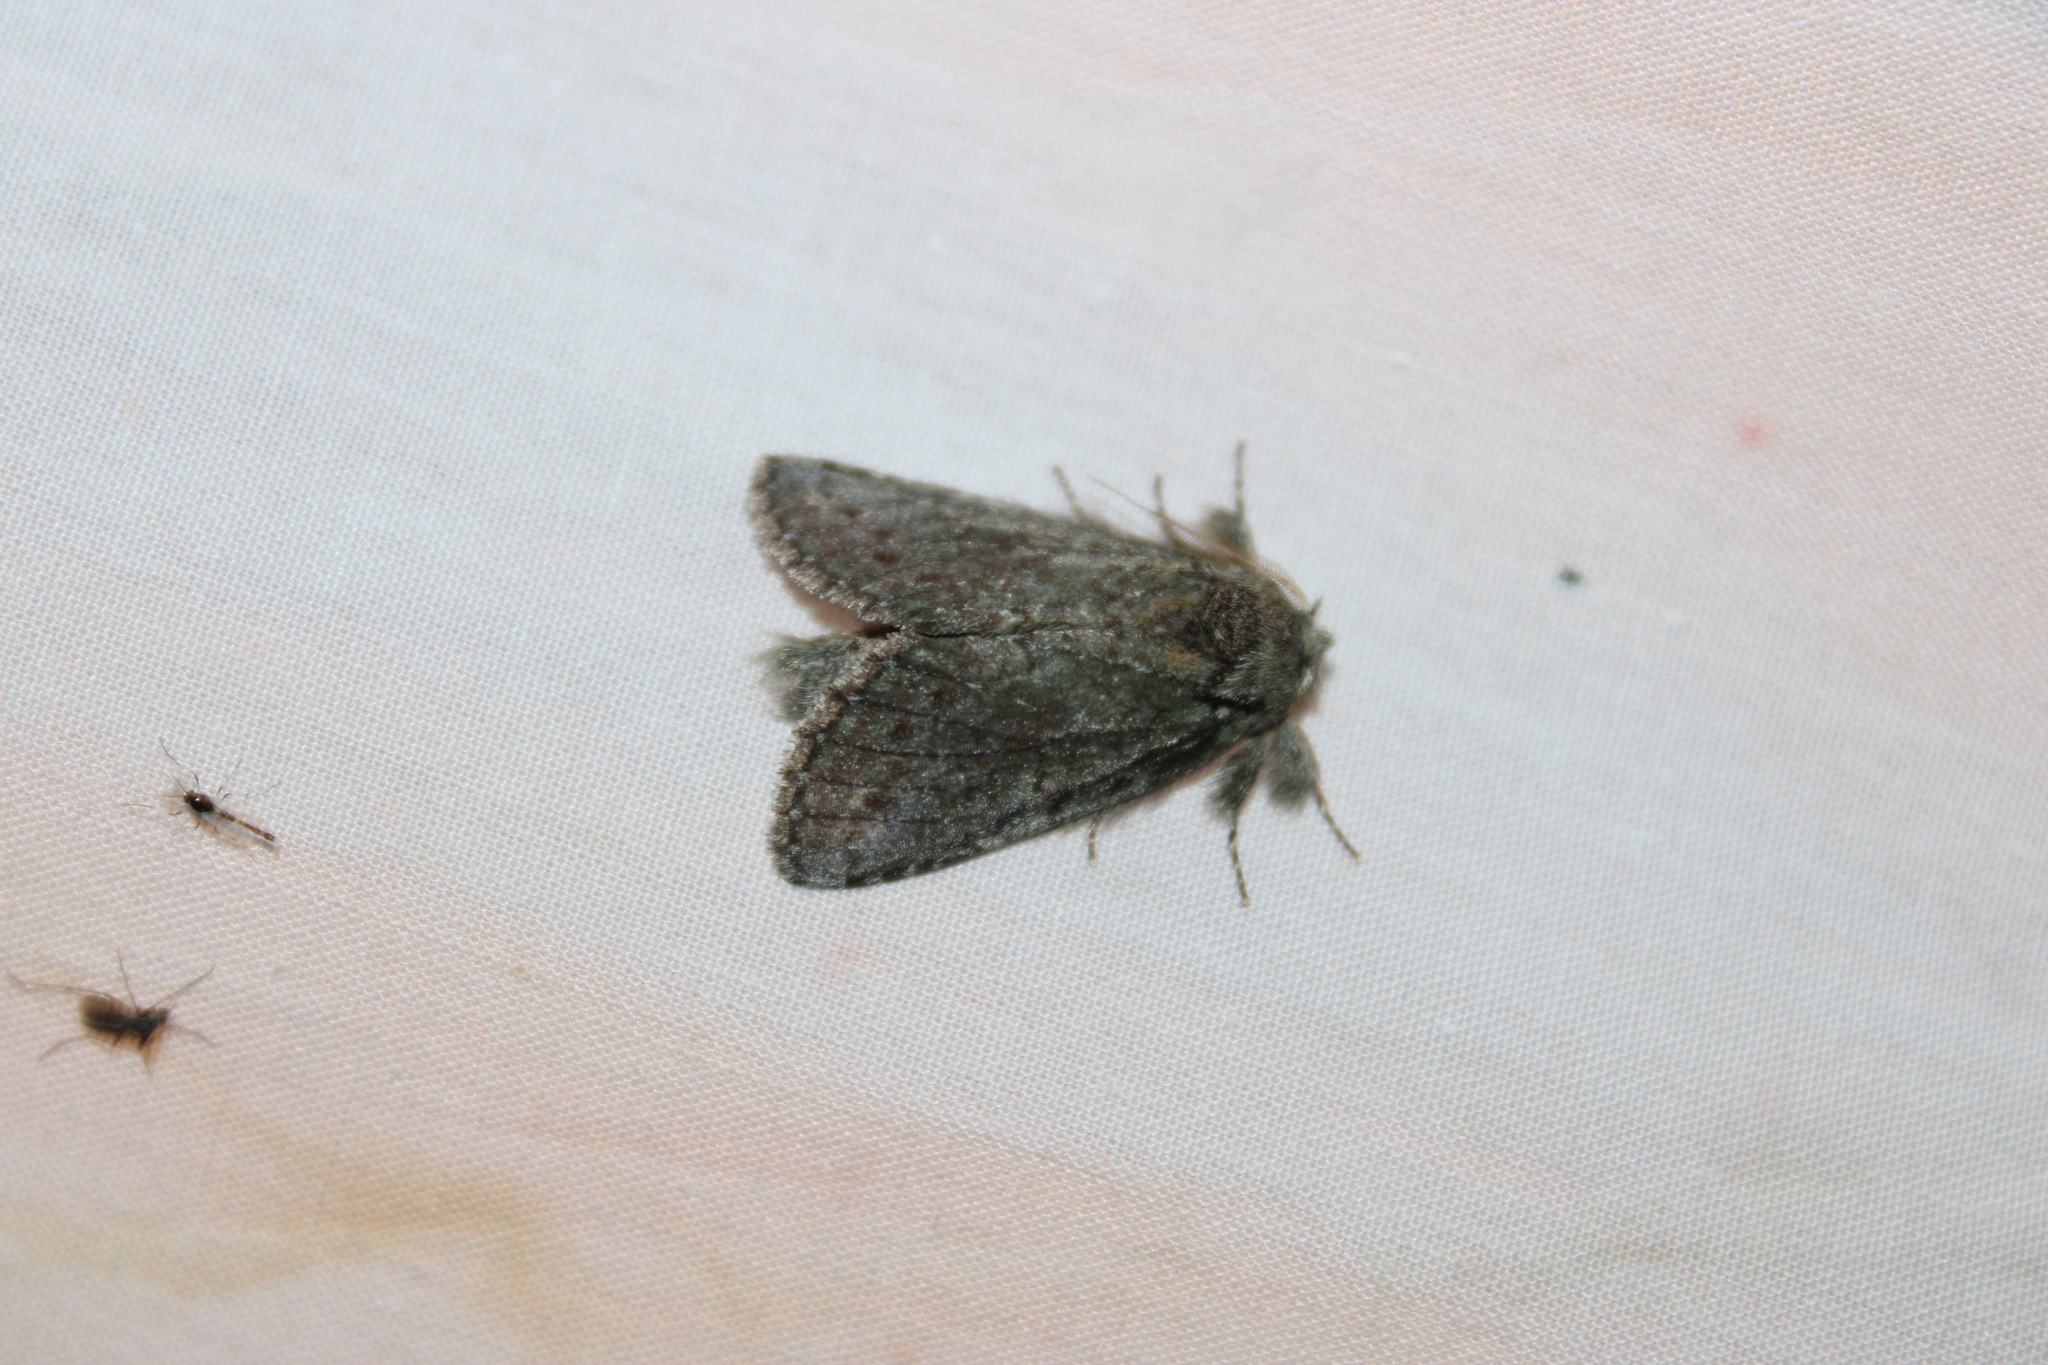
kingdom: Animalia
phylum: Arthropoda
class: Insecta
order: Lepidoptera
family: Notodontidae
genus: Disphragis
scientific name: Disphragis Cecrita guttivitta
